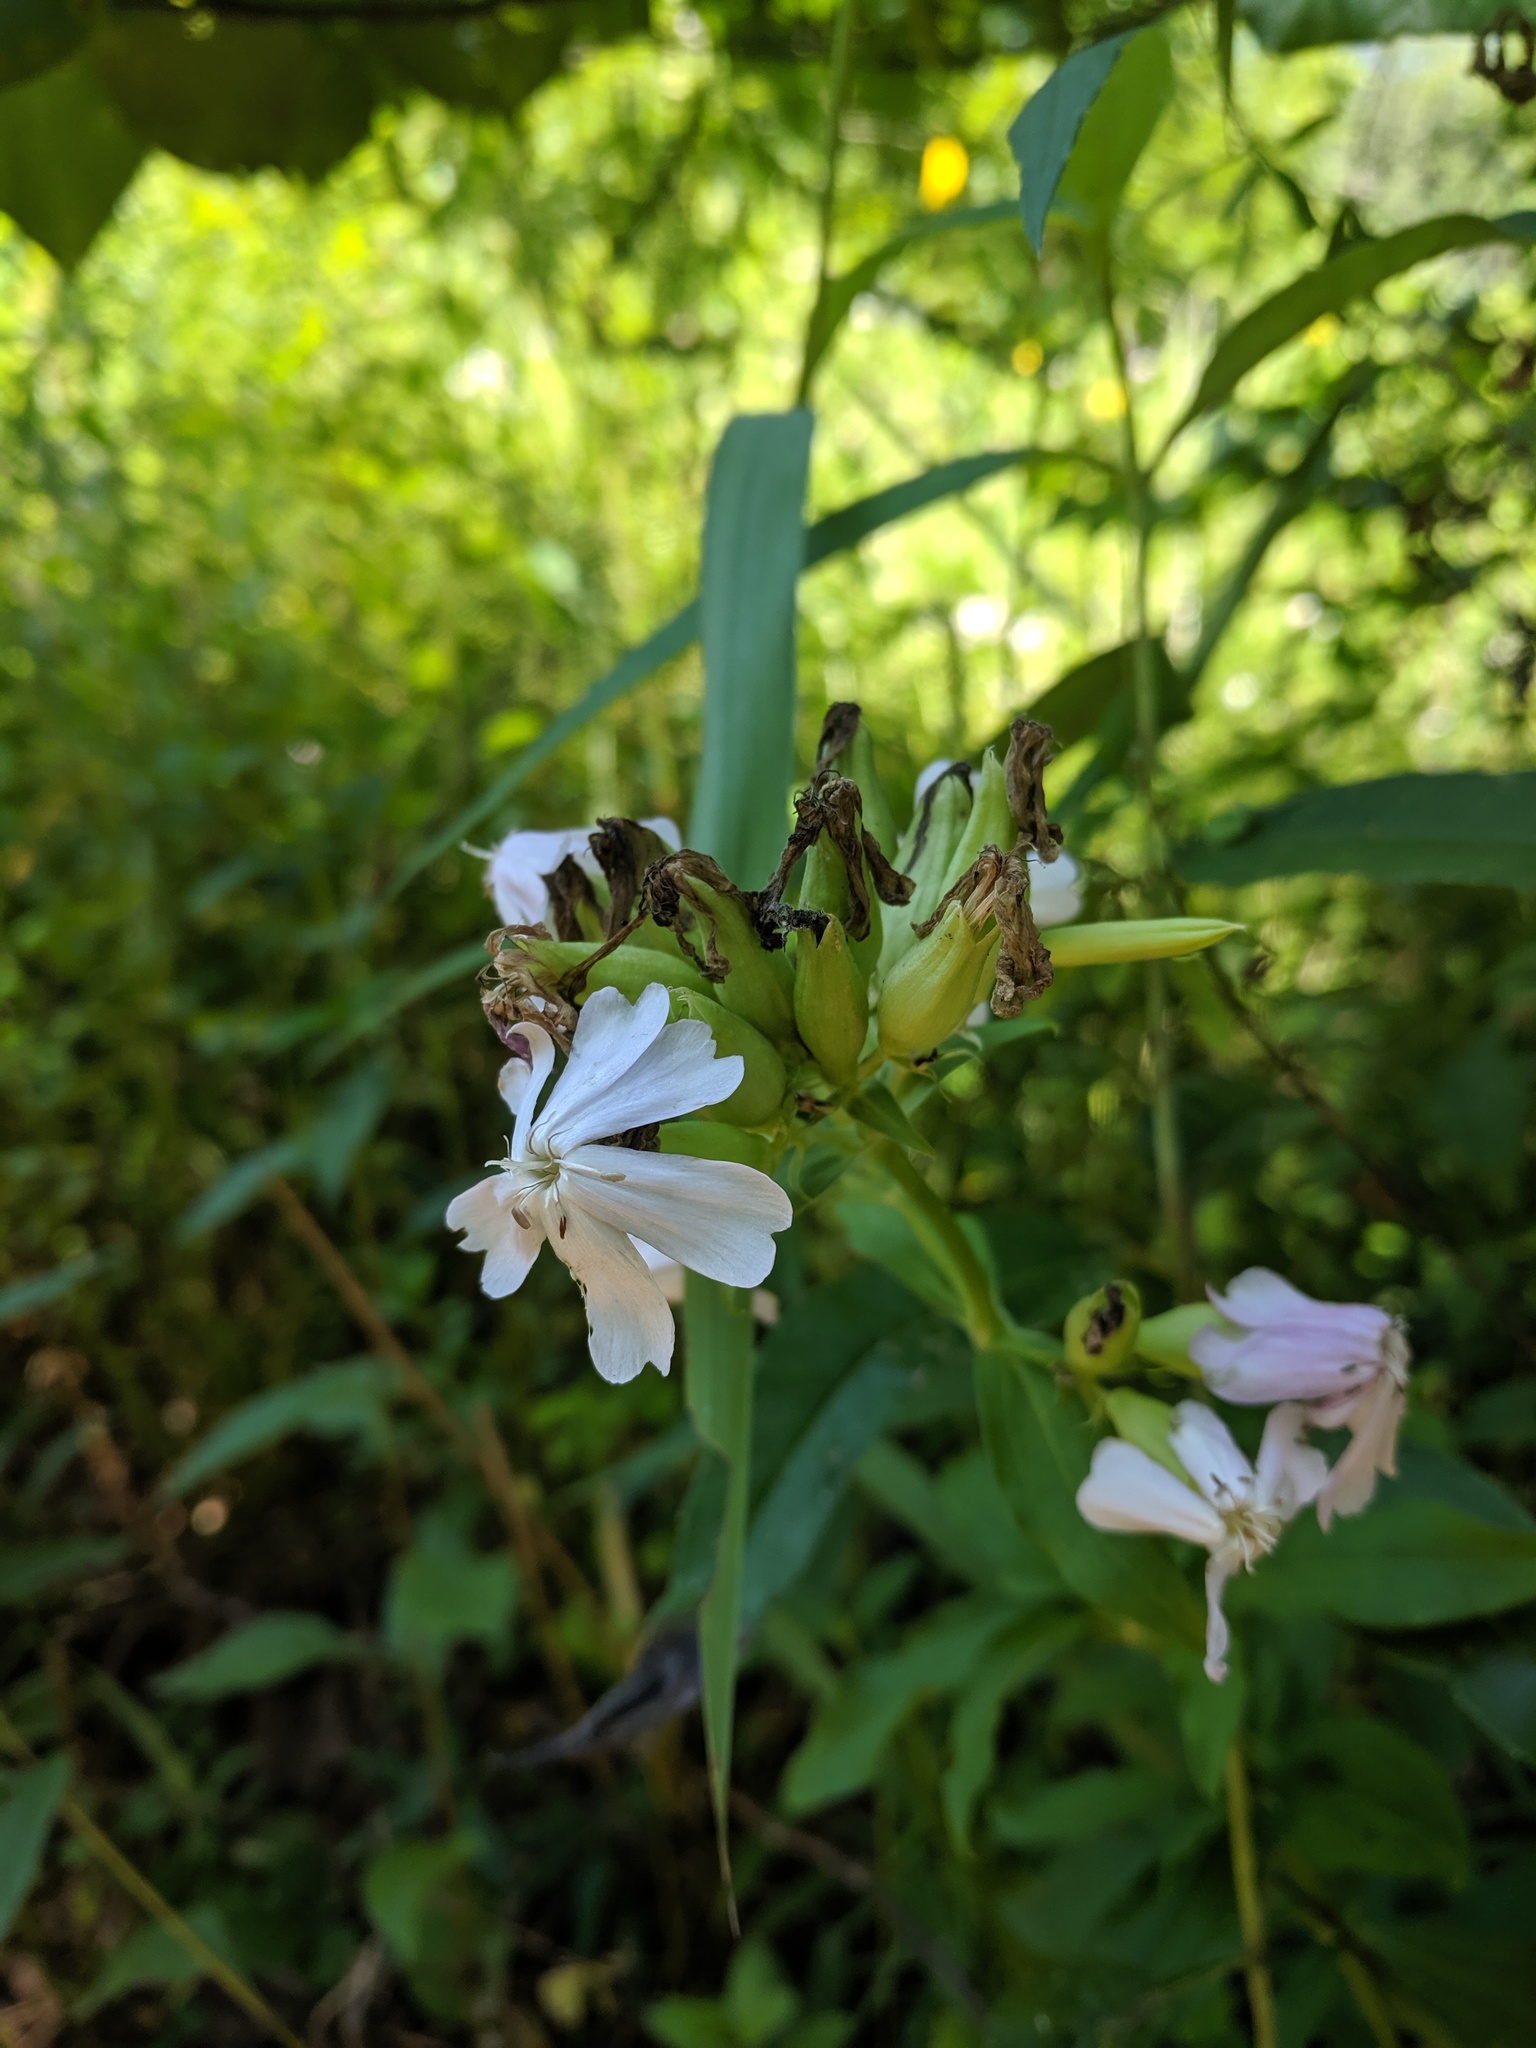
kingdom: Plantae
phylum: Tracheophyta
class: Magnoliopsida
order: Caryophyllales
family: Caryophyllaceae
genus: Saponaria
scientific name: Saponaria officinalis
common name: Soapwort
